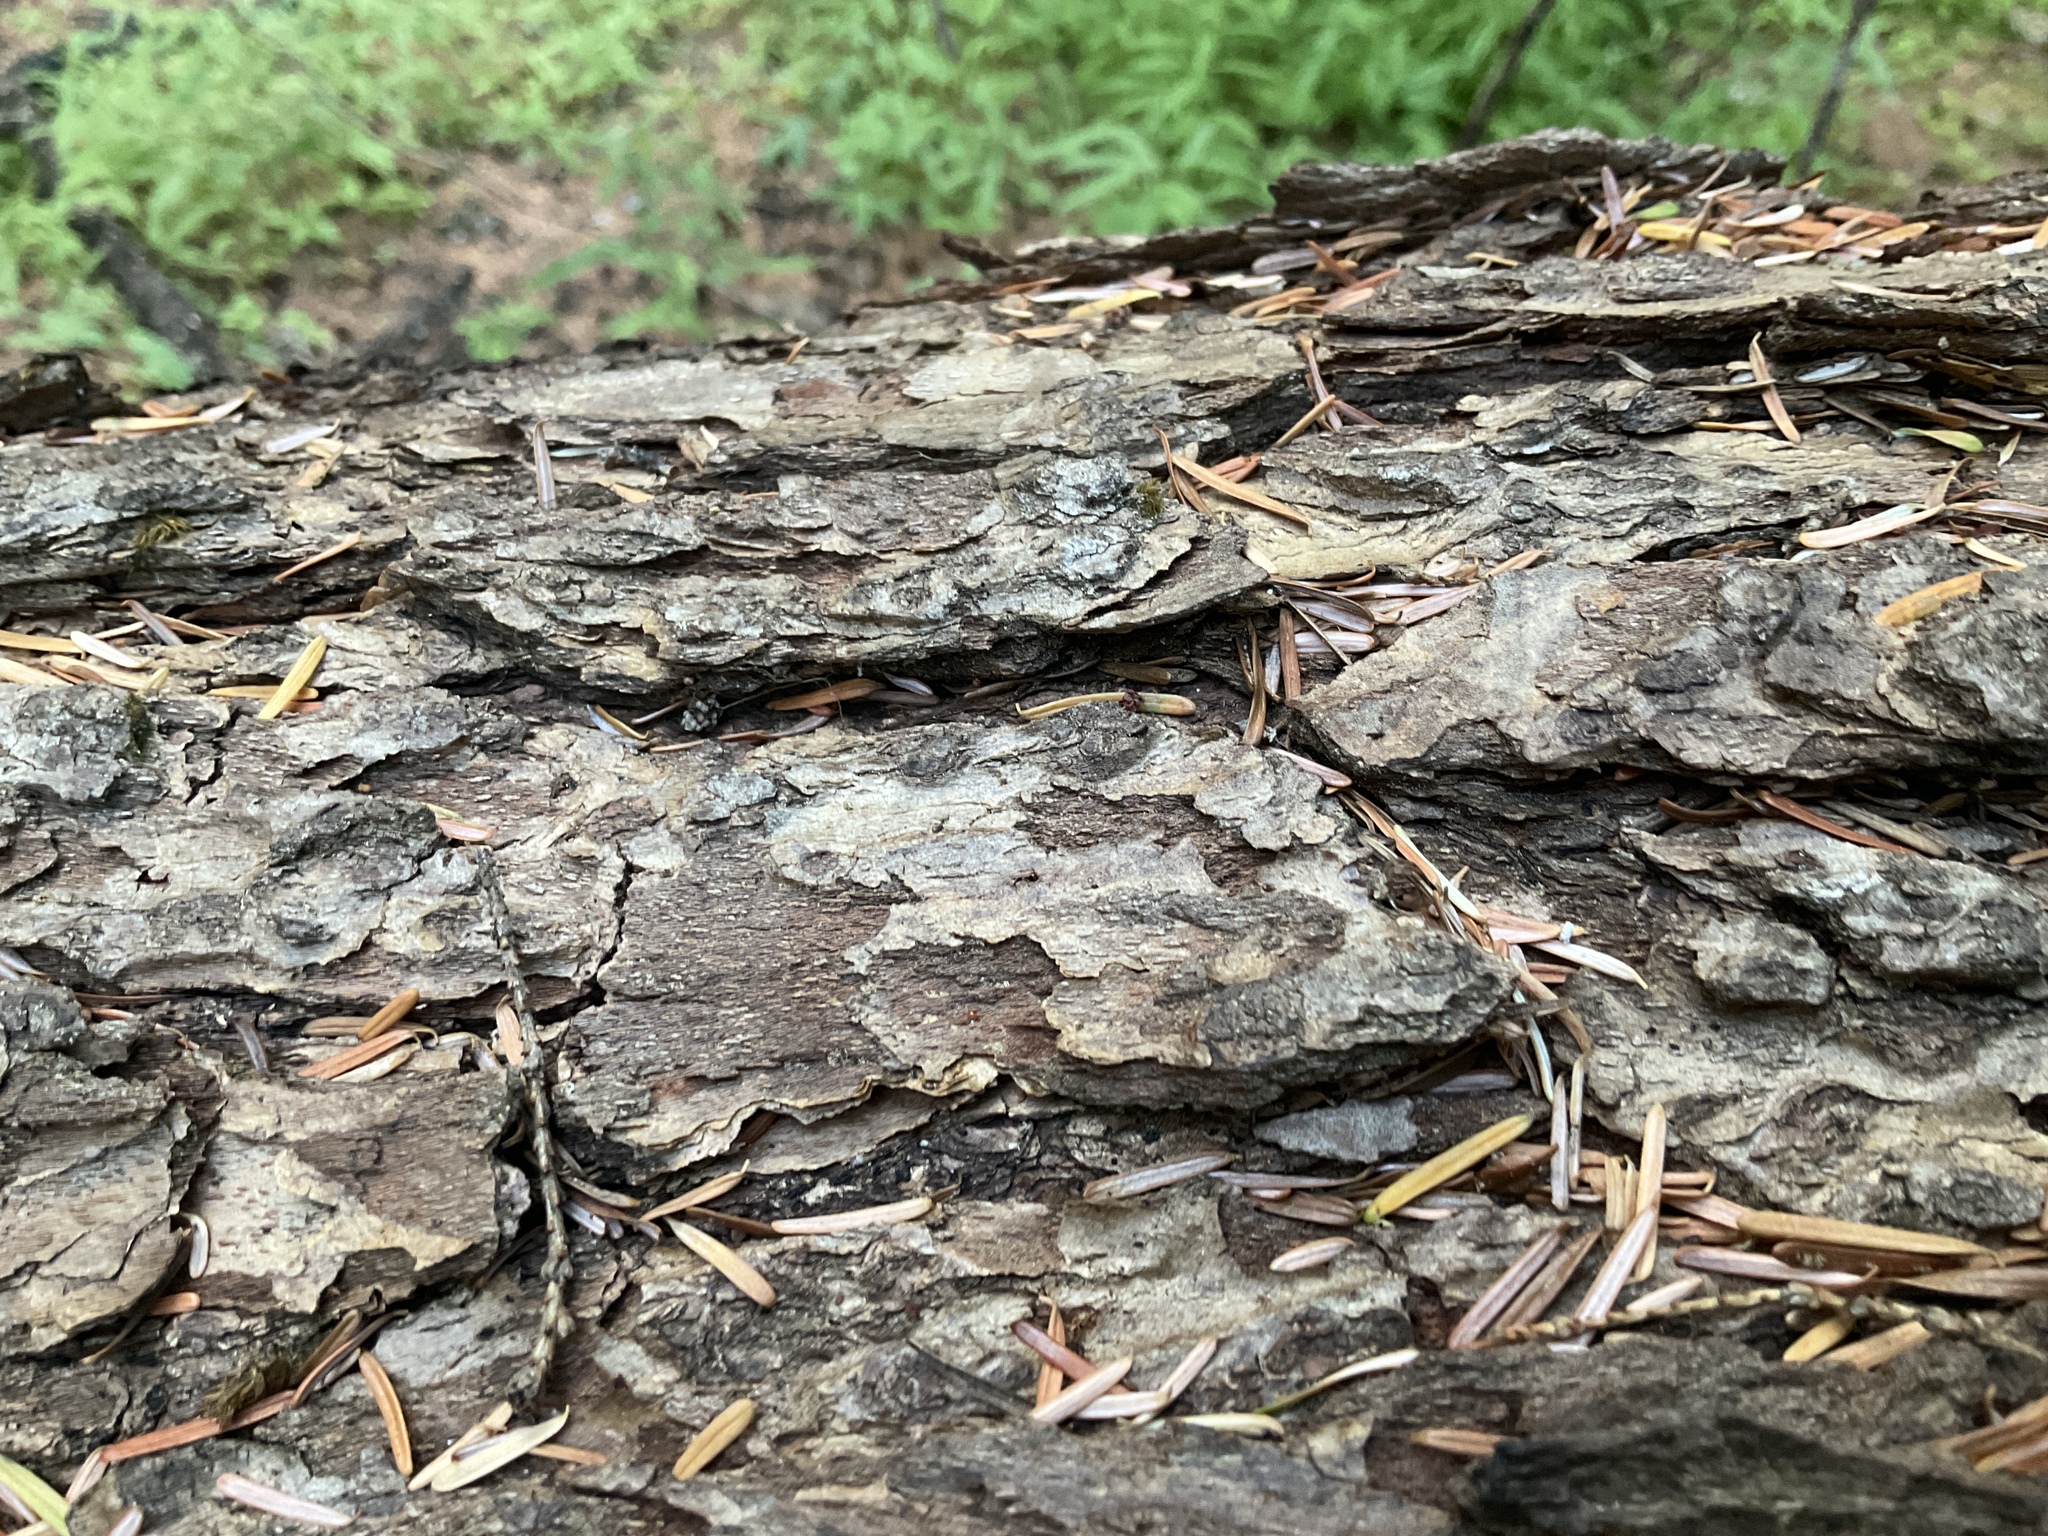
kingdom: Plantae
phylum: Tracheophyta
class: Pinopsida
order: Pinales
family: Pinaceae
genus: Tsuga
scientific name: Tsuga heterophylla
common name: Western hemlock
